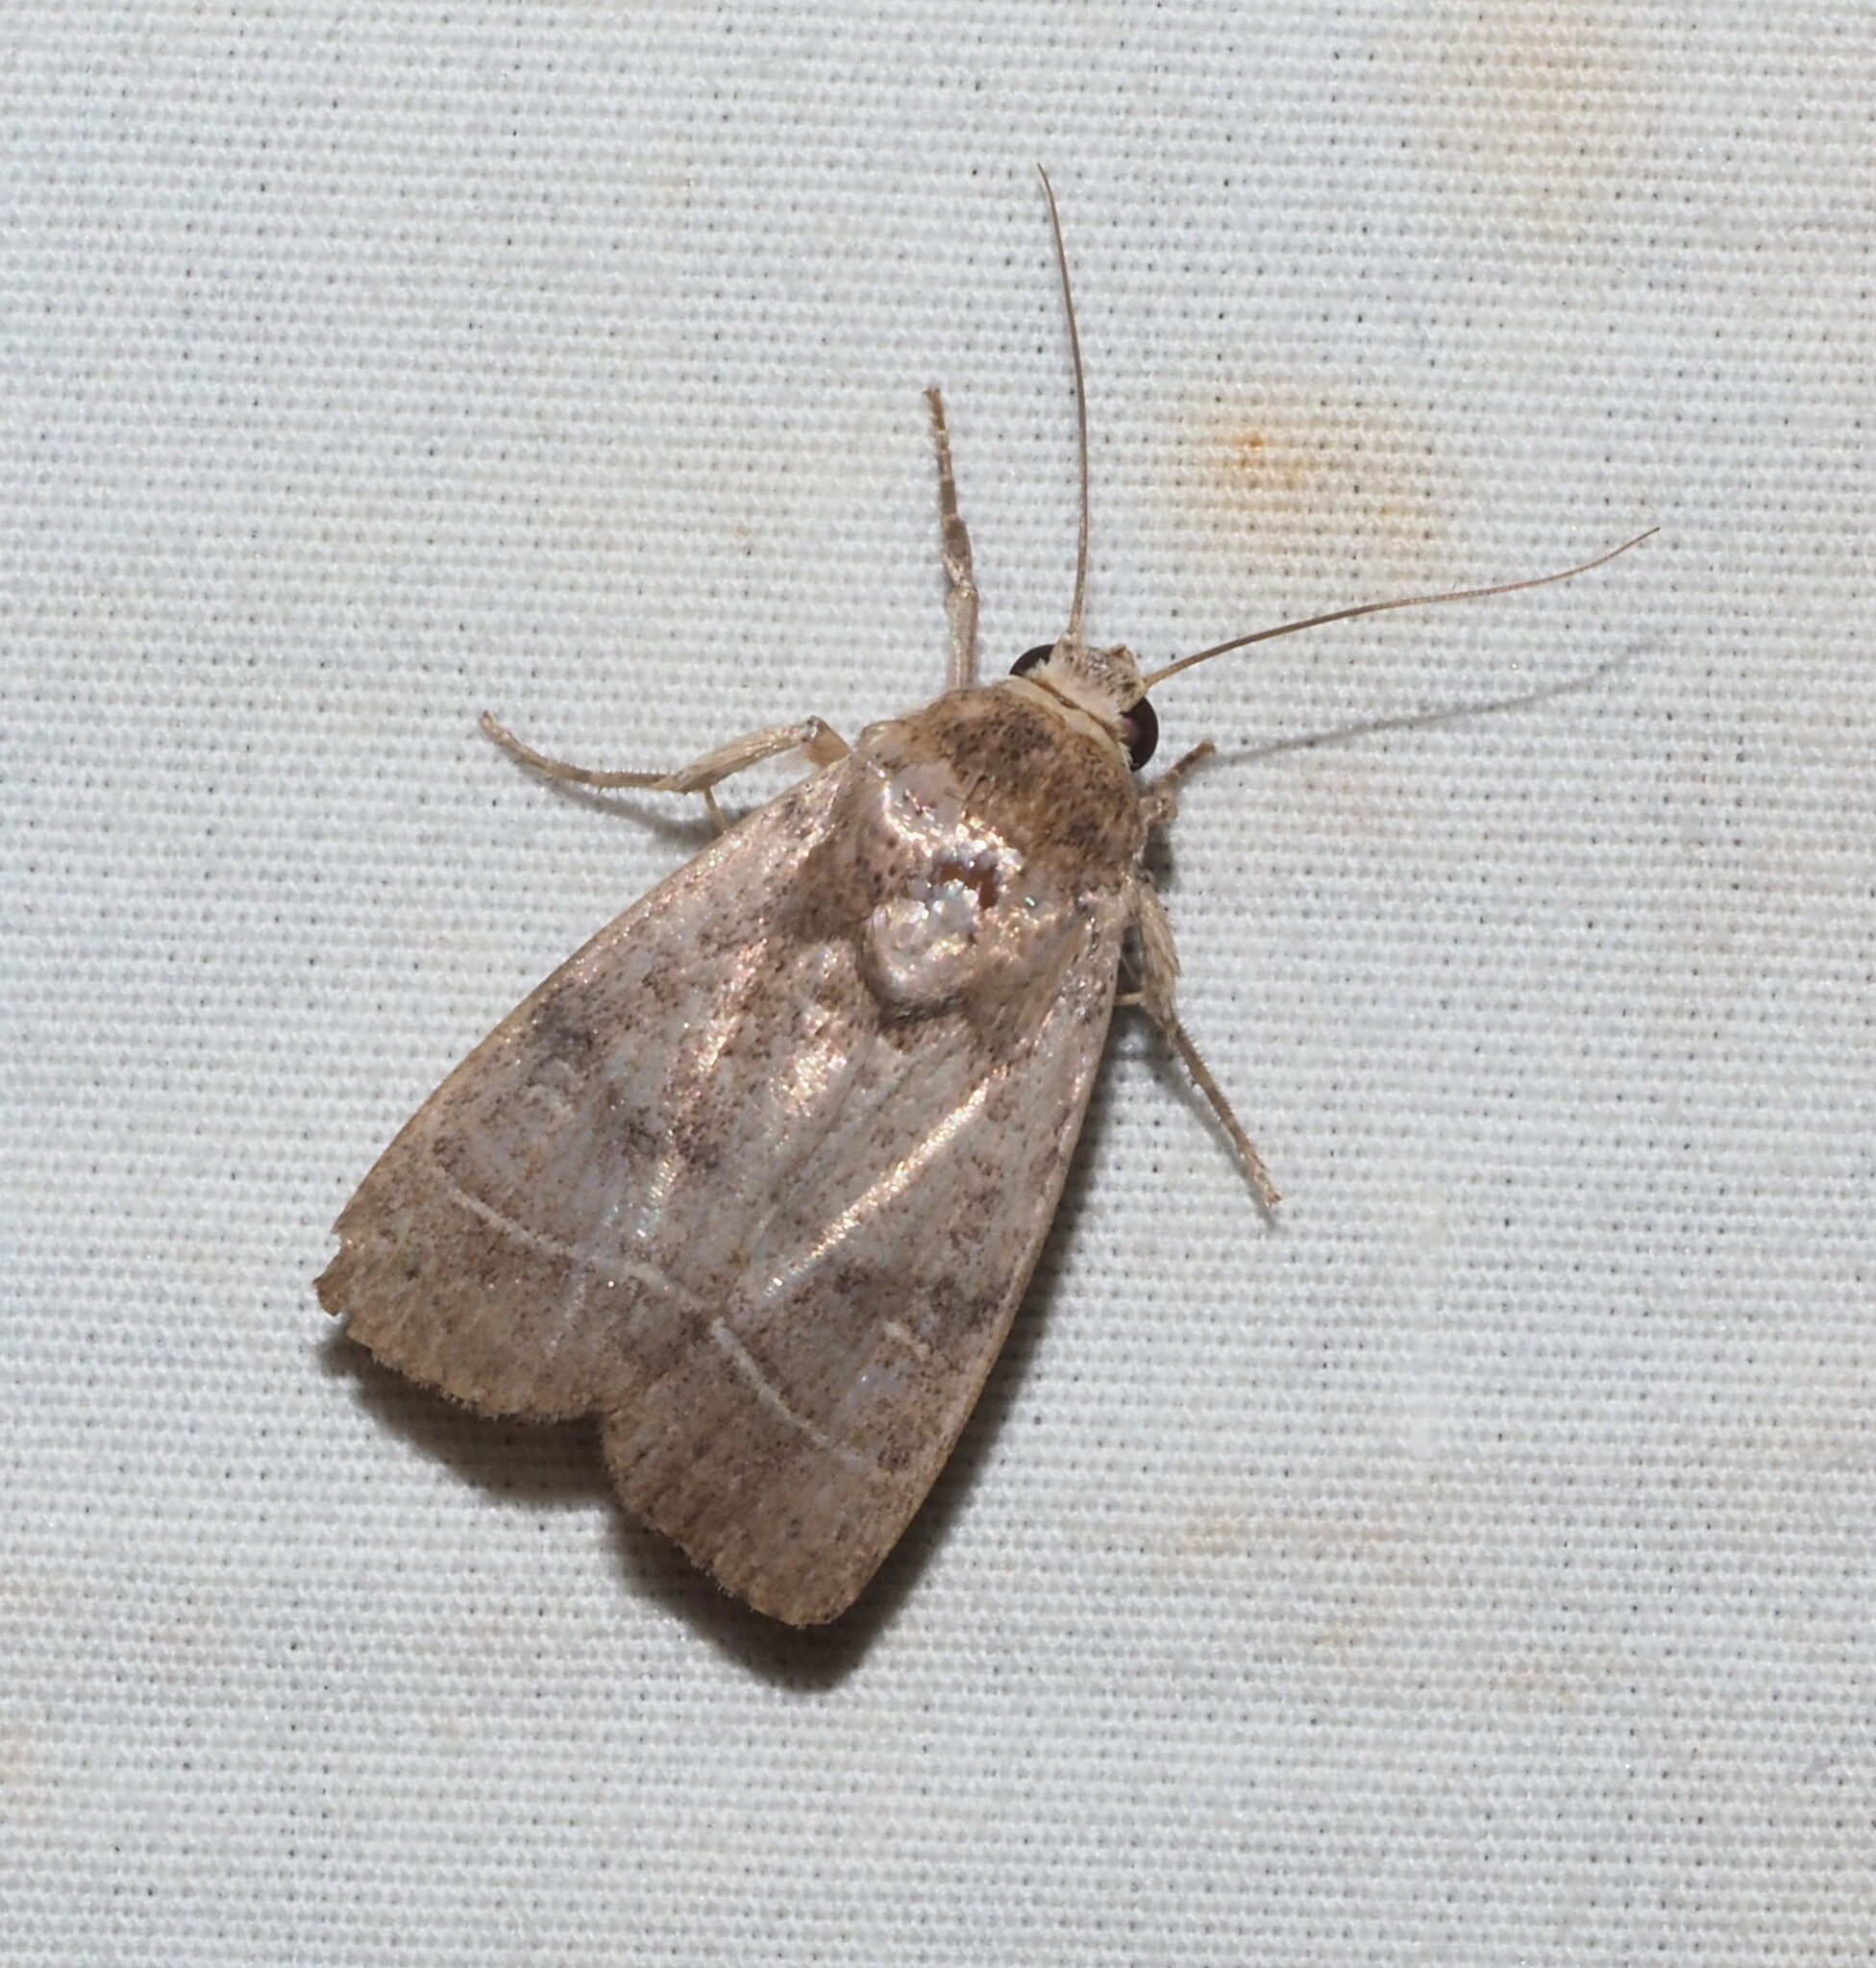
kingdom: Animalia
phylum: Arthropoda
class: Insecta
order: Lepidoptera
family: Noctuidae
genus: Athetis
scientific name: Athetis thoracica
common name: Cutworm
